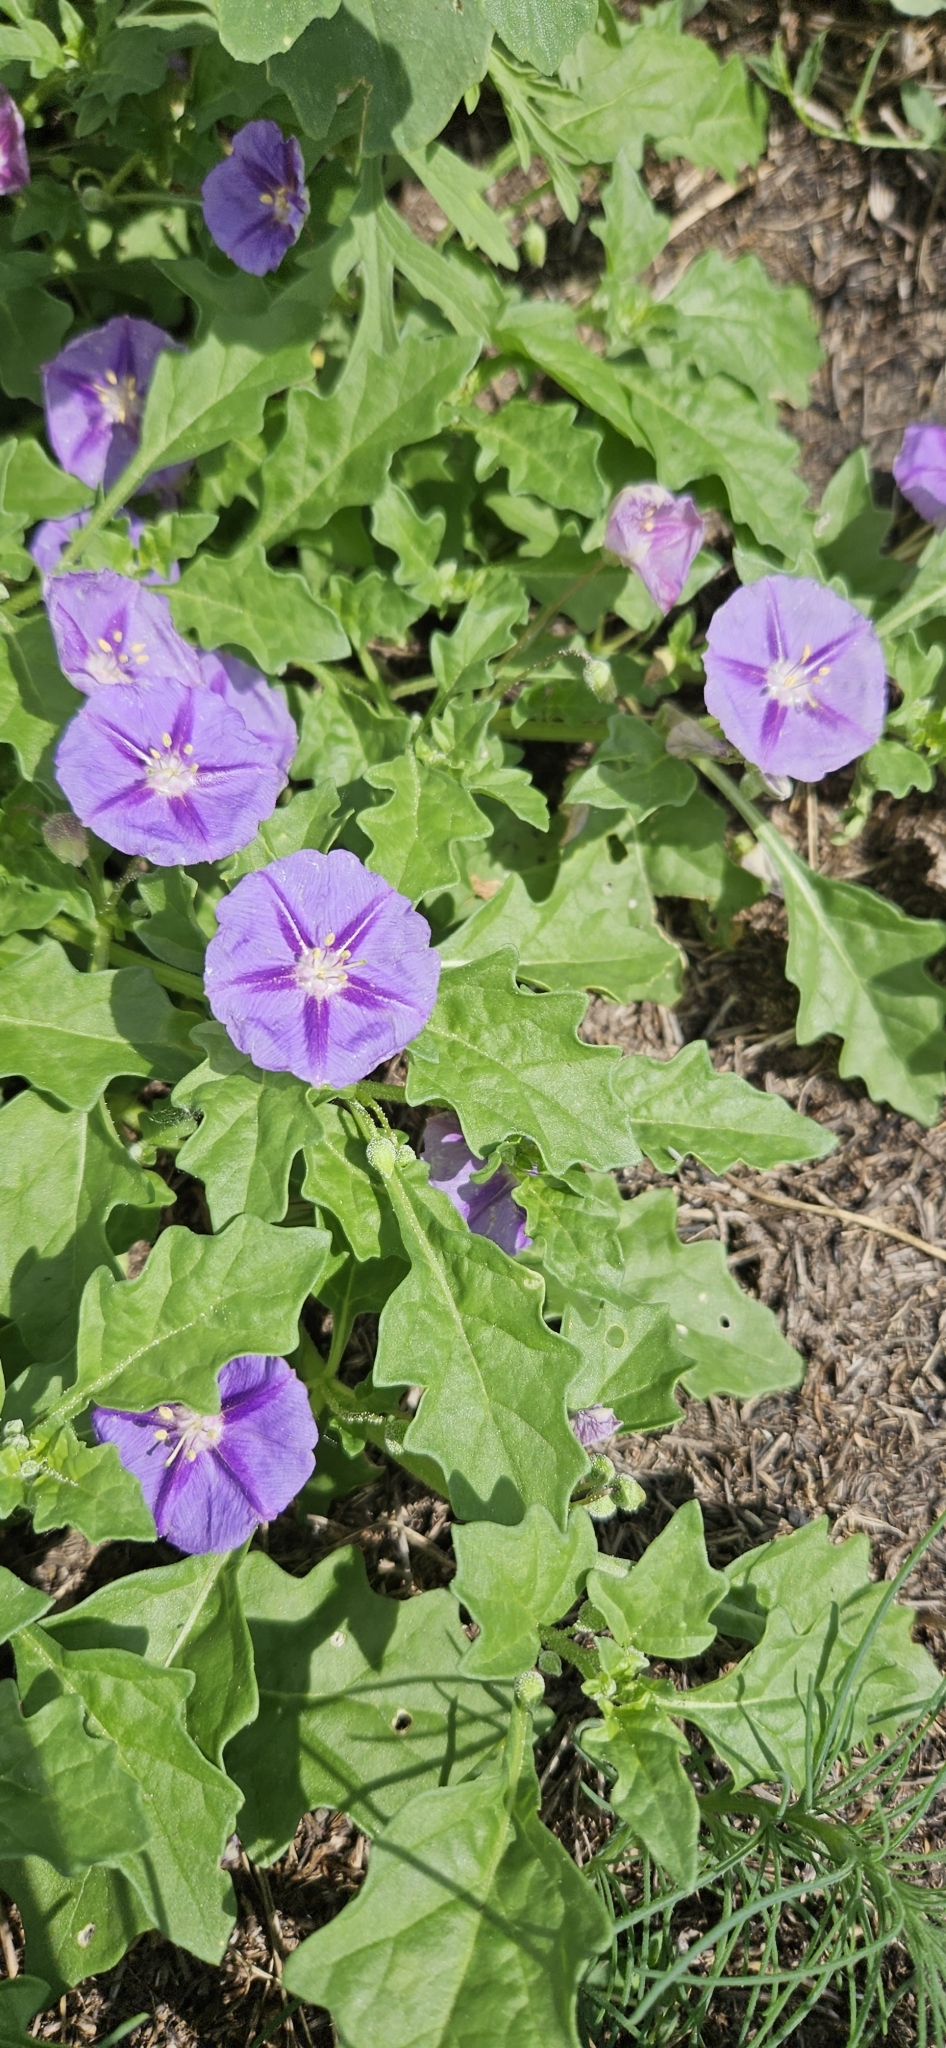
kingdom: Plantae
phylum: Tracheophyta
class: Magnoliopsida
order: Solanales
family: Solanaceae
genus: Quincula
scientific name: Quincula lobata
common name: Purple-ground-cherry
